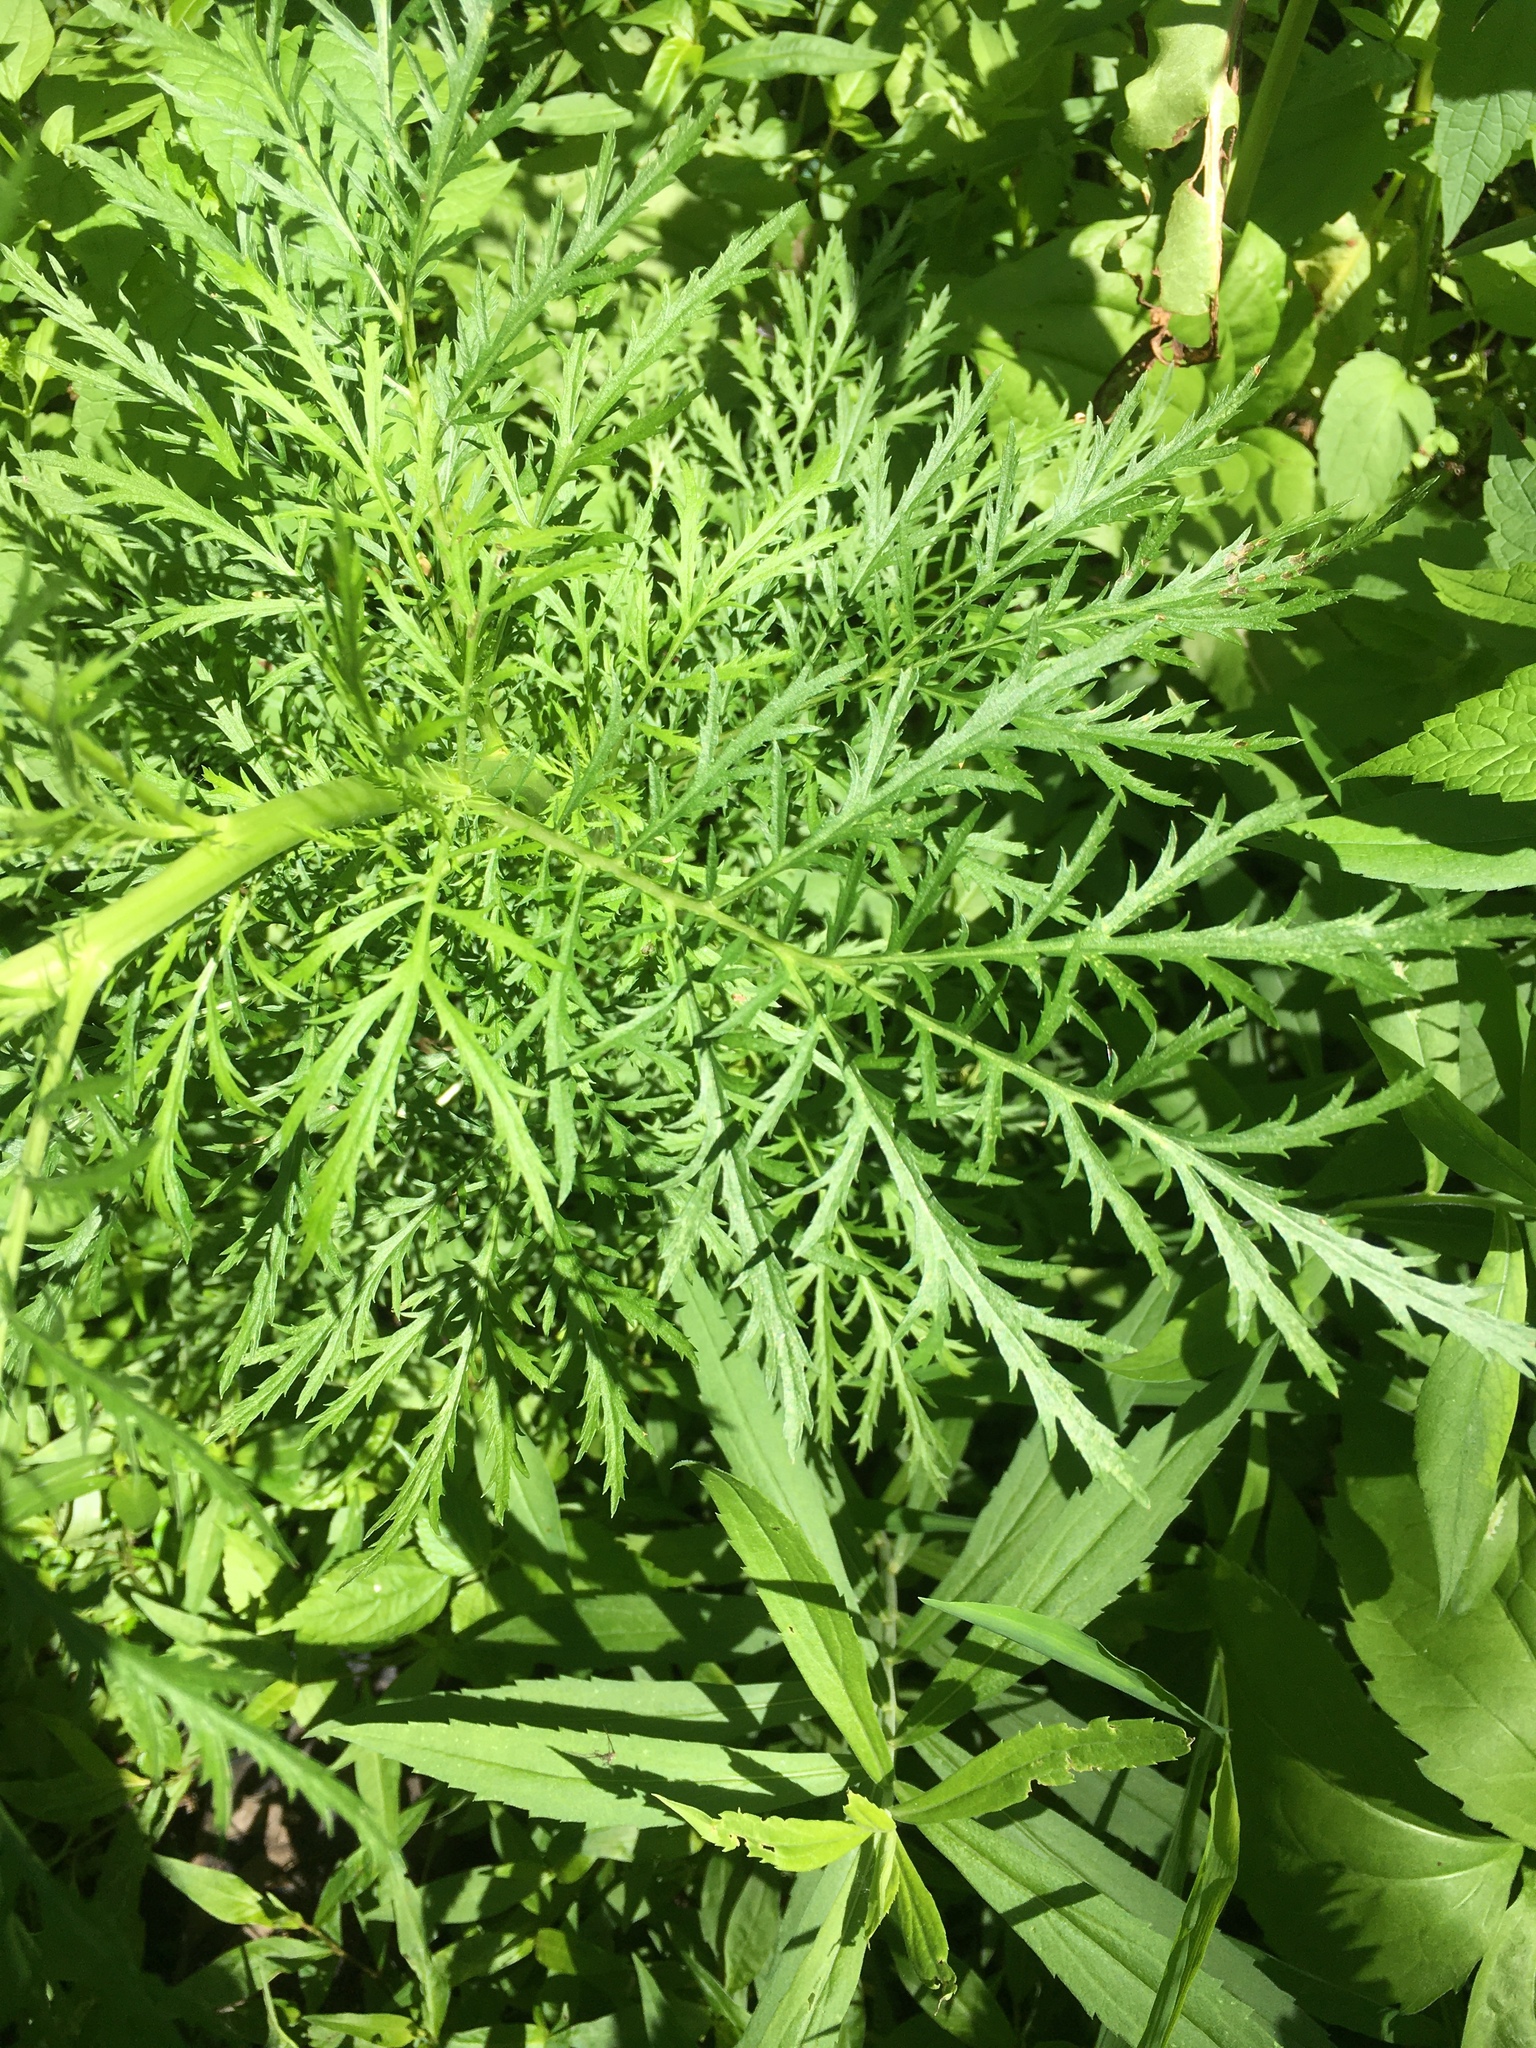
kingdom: Plantae
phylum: Tracheophyta
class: Magnoliopsida
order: Asterales
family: Asteraceae
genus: Artemisia
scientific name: Artemisia biennis
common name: Biennial wormwood
